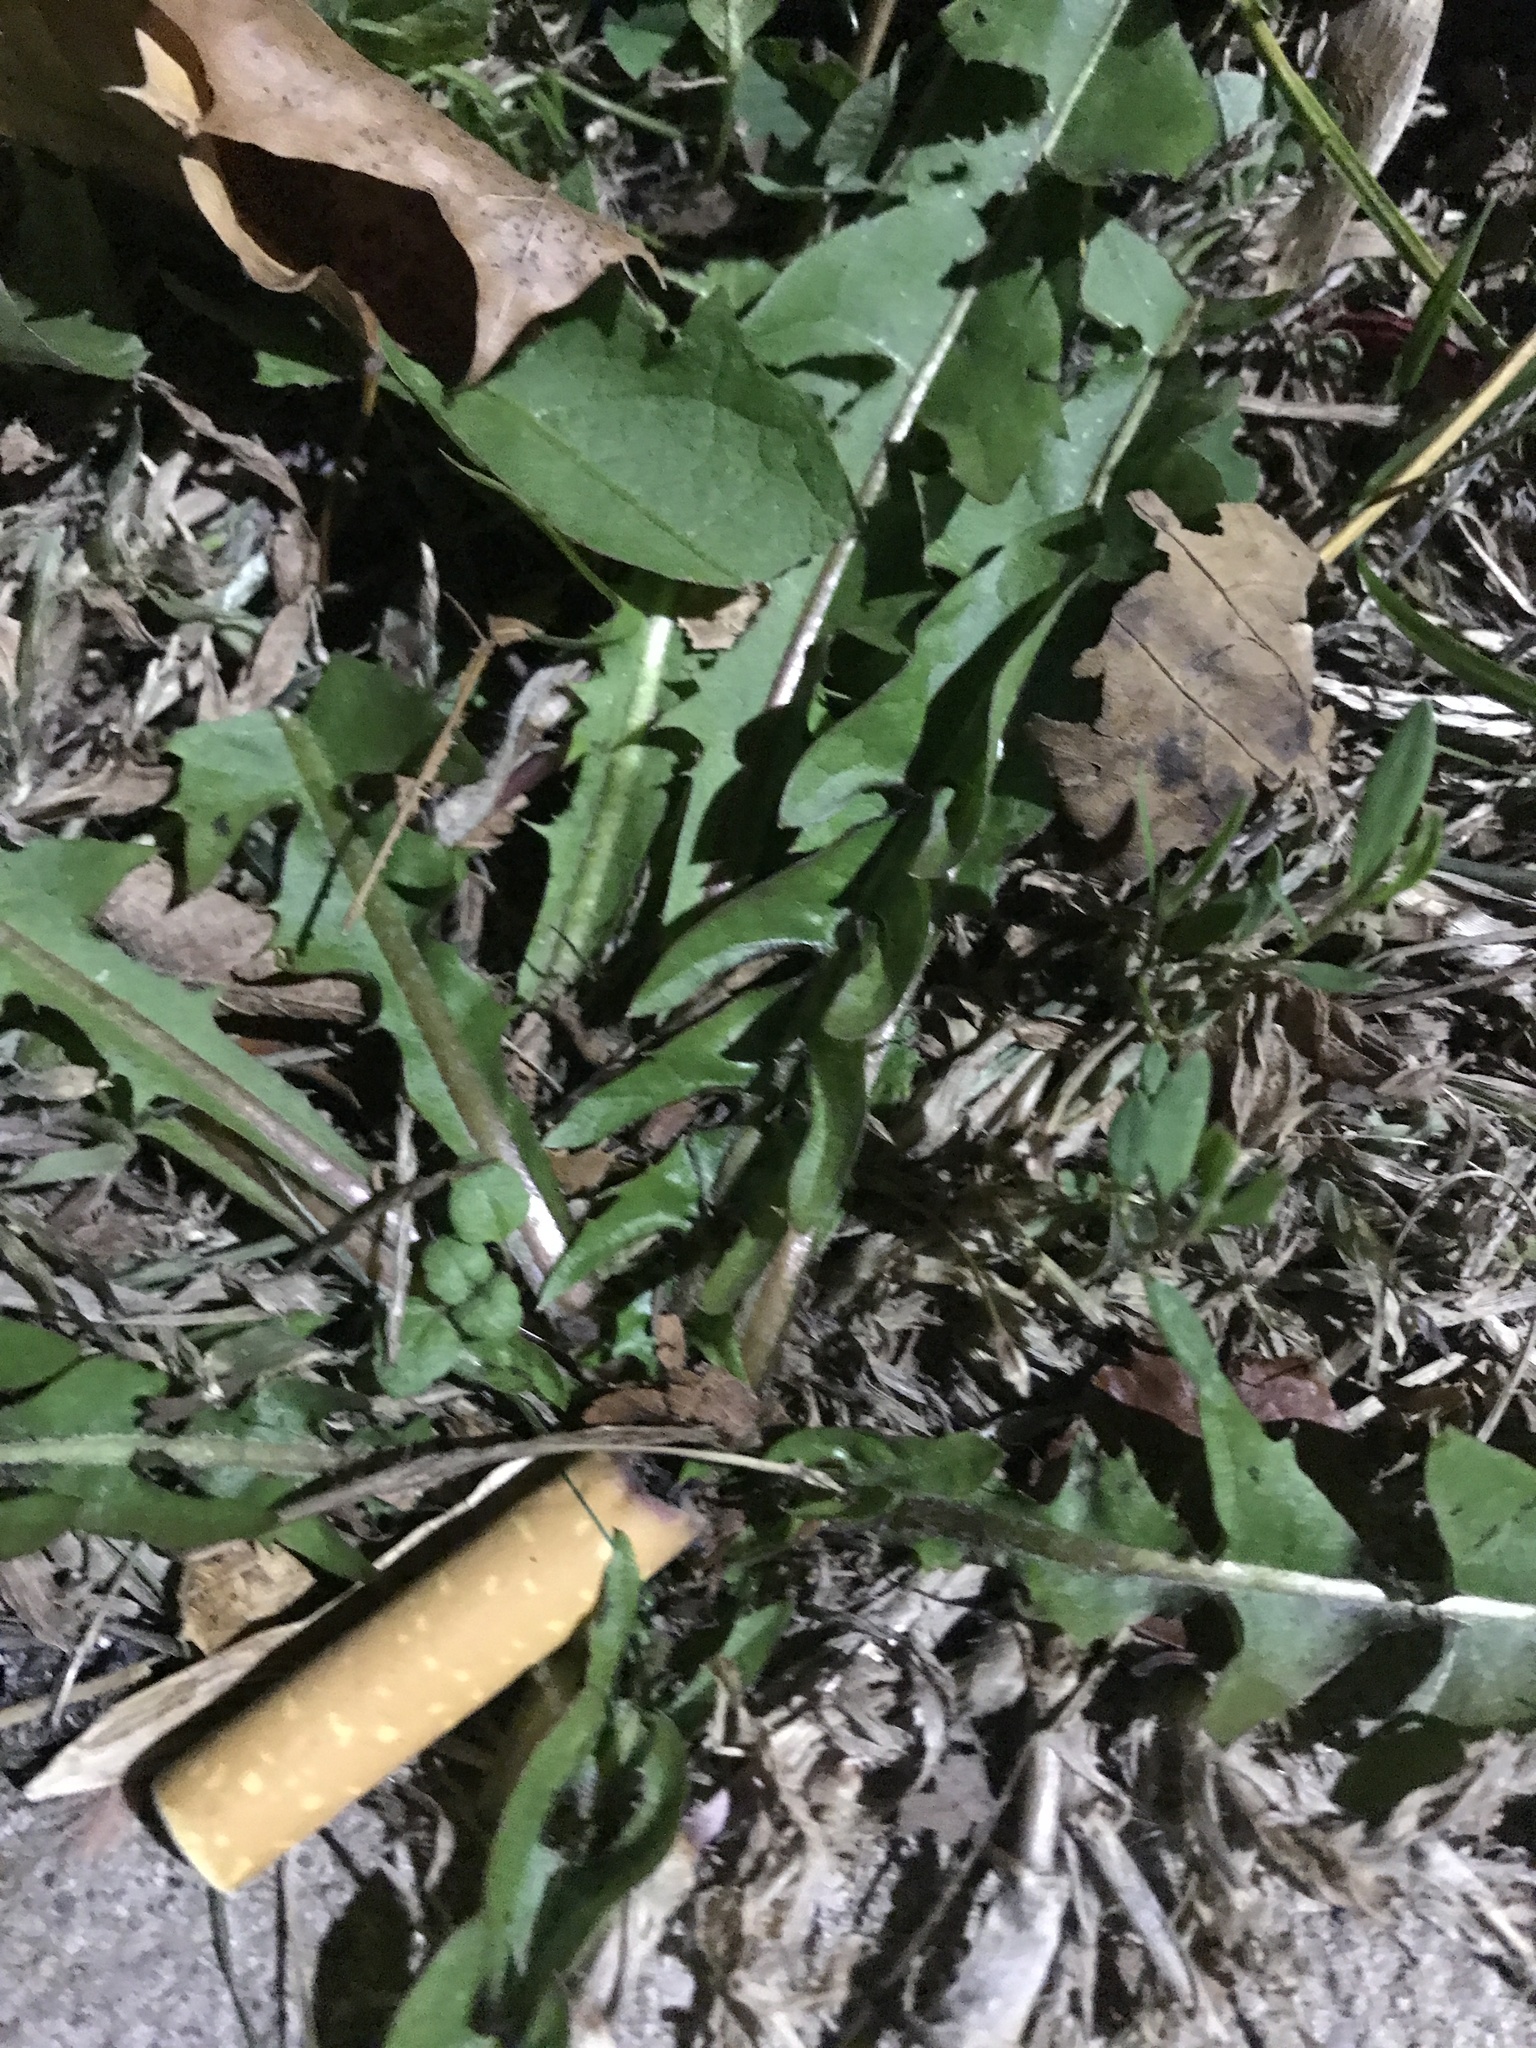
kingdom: Plantae
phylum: Tracheophyta
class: Magnoliopsida
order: Asterales
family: Asteraceae
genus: Taraxacum
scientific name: Taraxacum officinale
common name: Common dandelion
